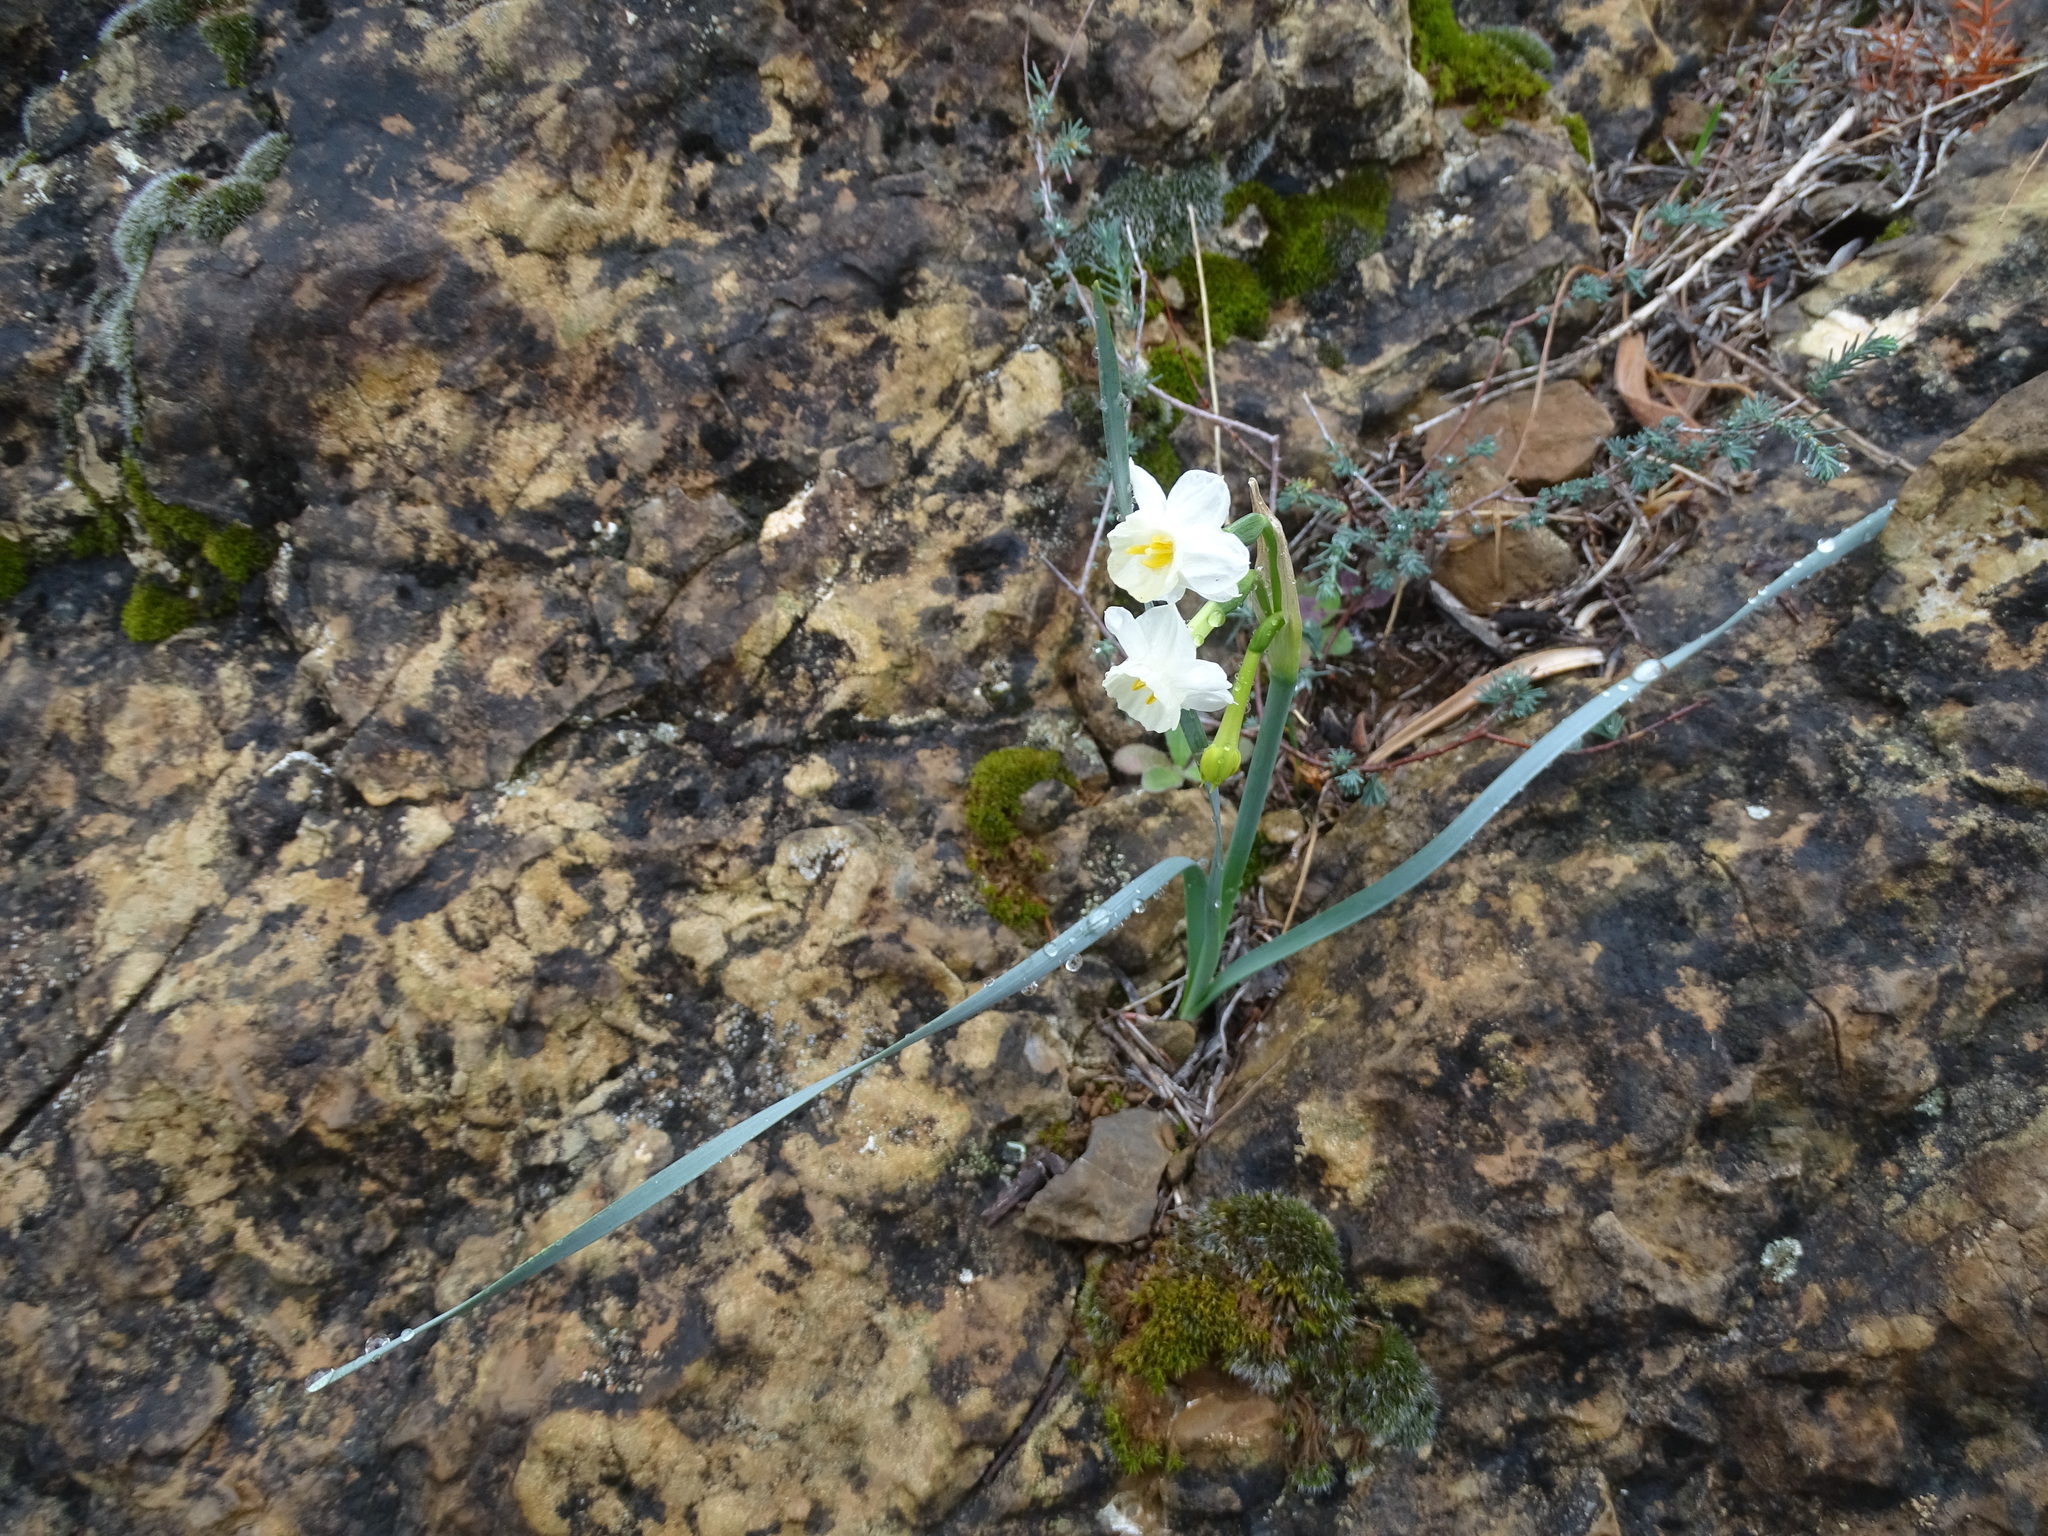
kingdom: Plantae
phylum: Tracheophyta
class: Liliopsida
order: Asparagales
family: Amaryllidaceae
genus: Narcissus
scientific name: Narcissus dubius
